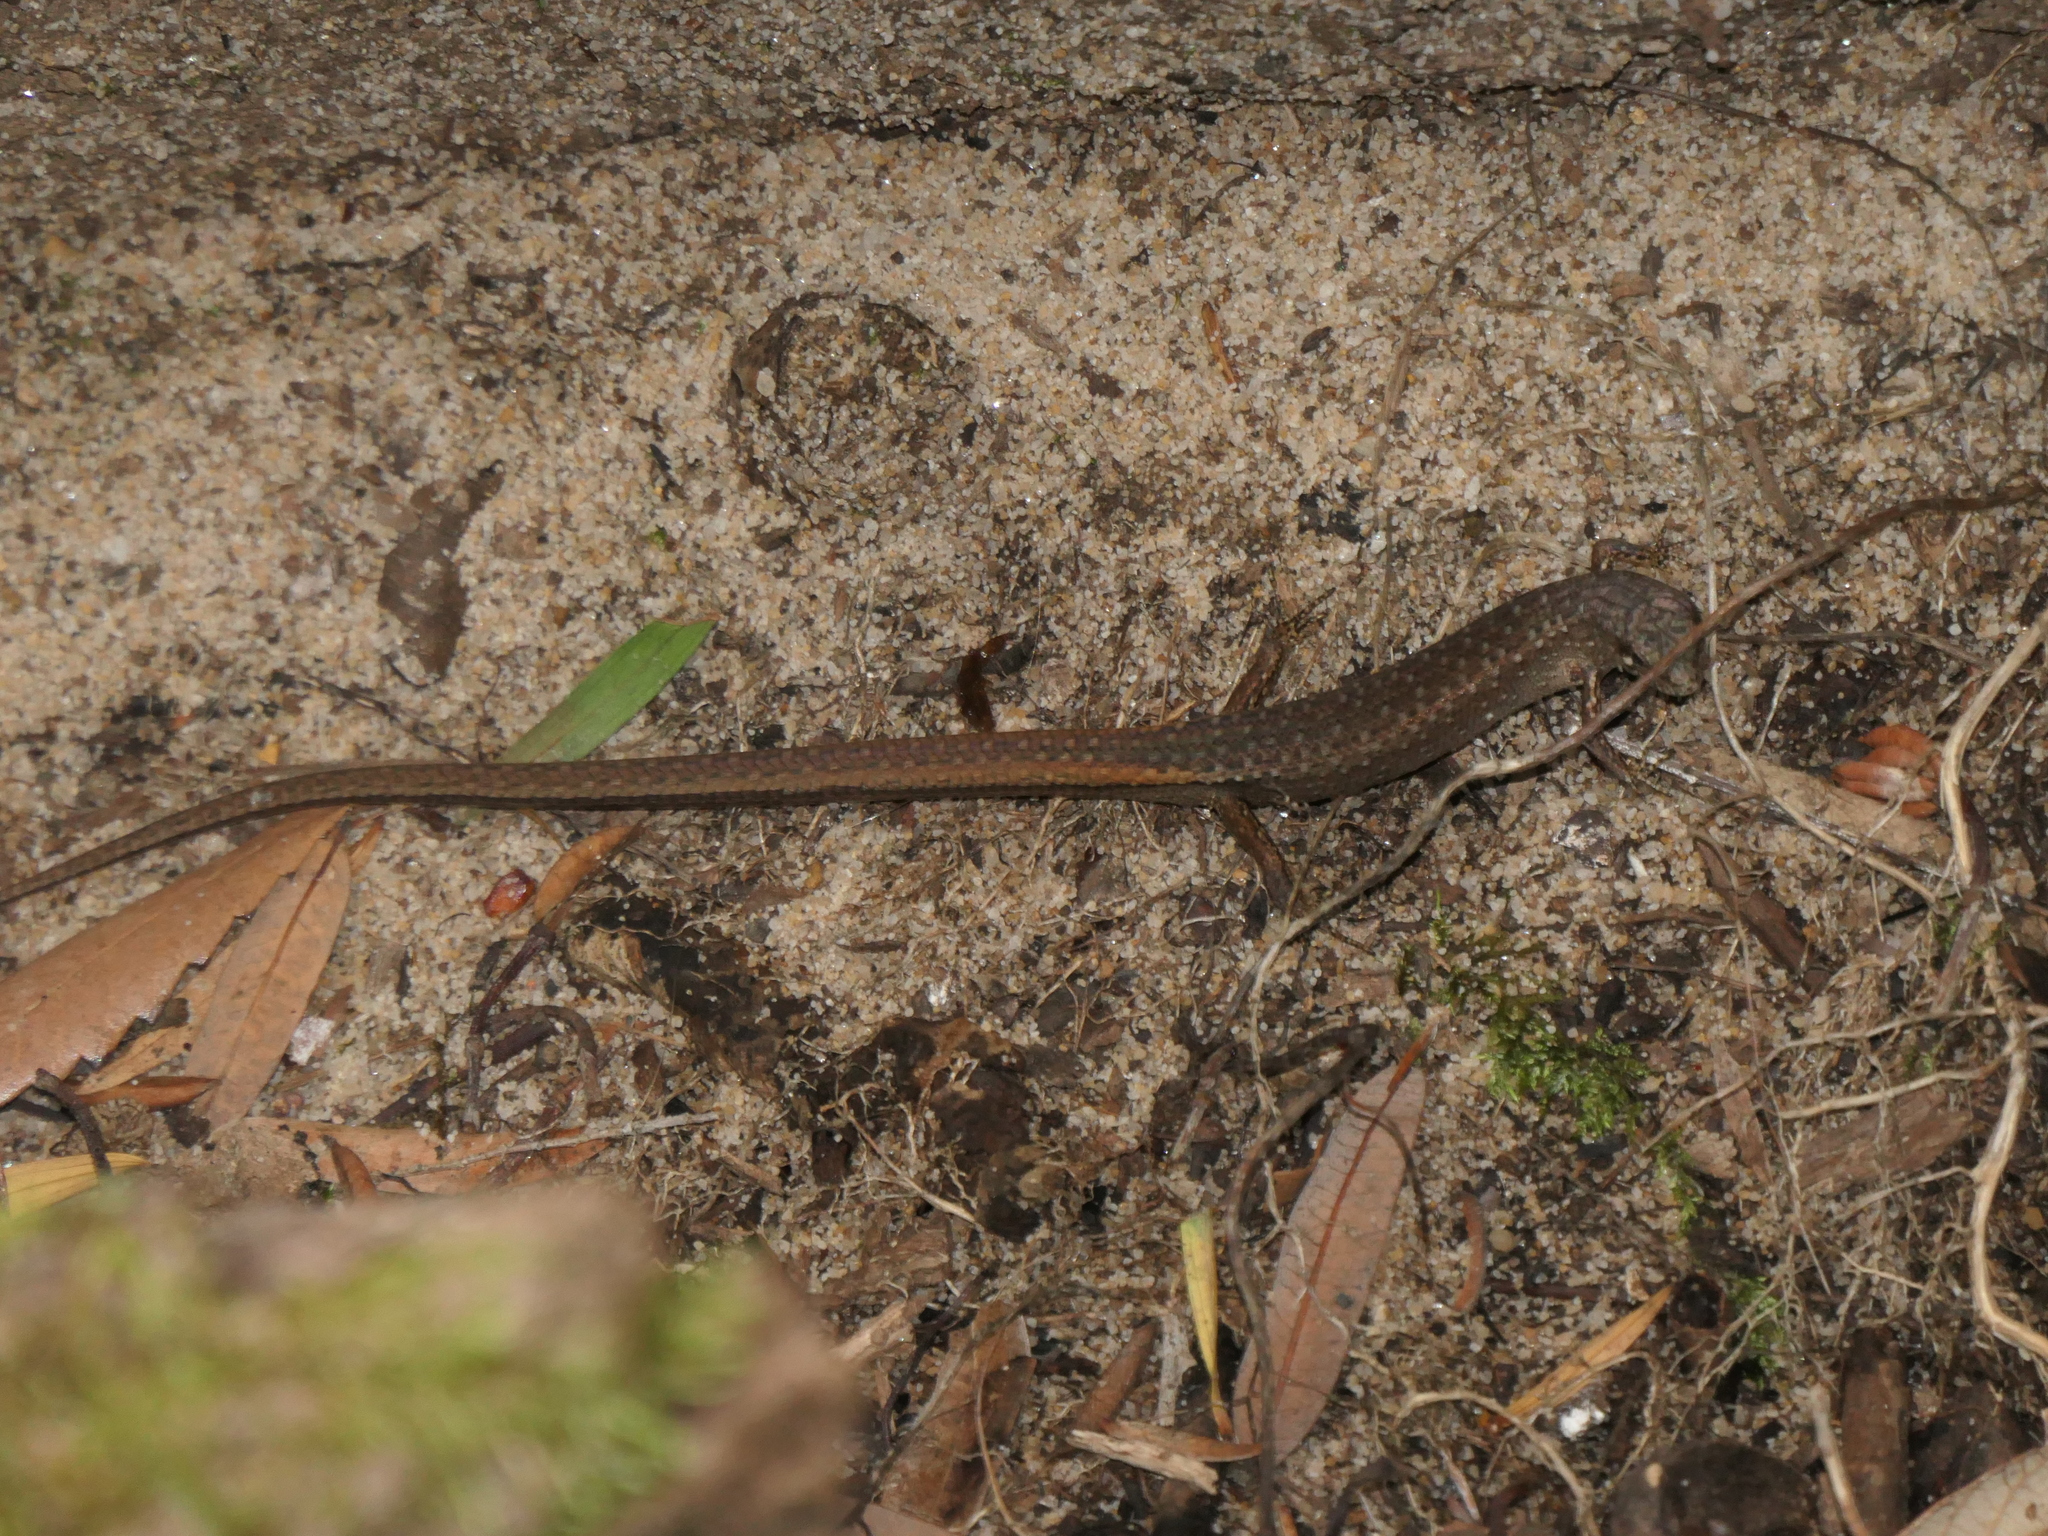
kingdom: Animalia
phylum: Chordata
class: Squamata
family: Scincidae
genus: Saproscincus
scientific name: Saproscincus mustelinus
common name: Southern weasel skink
